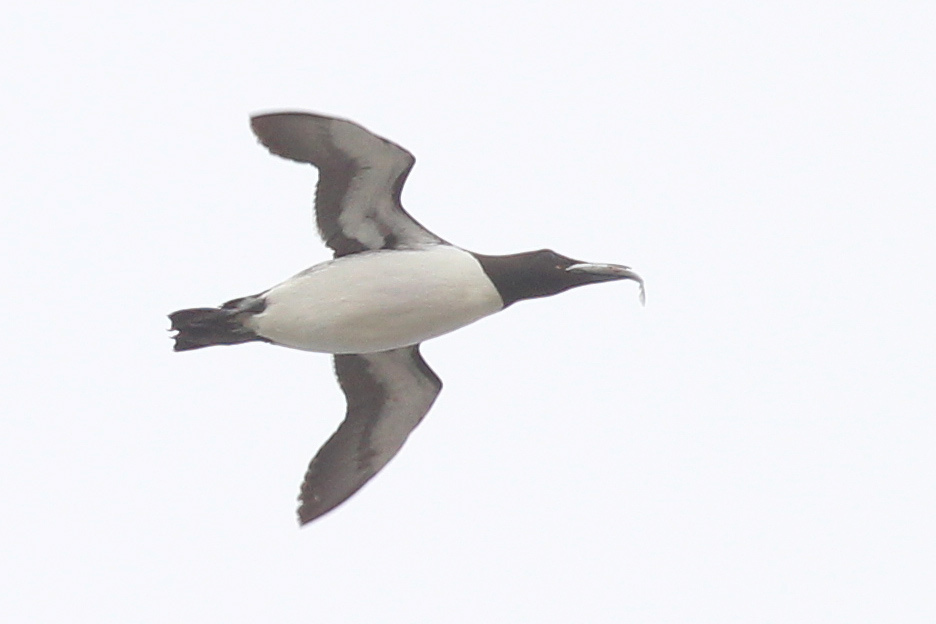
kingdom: Animalia
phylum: Chordata
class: Aves
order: Charadriiformes
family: Alcidae
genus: Uria
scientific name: Uria aalge
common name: Common murre
